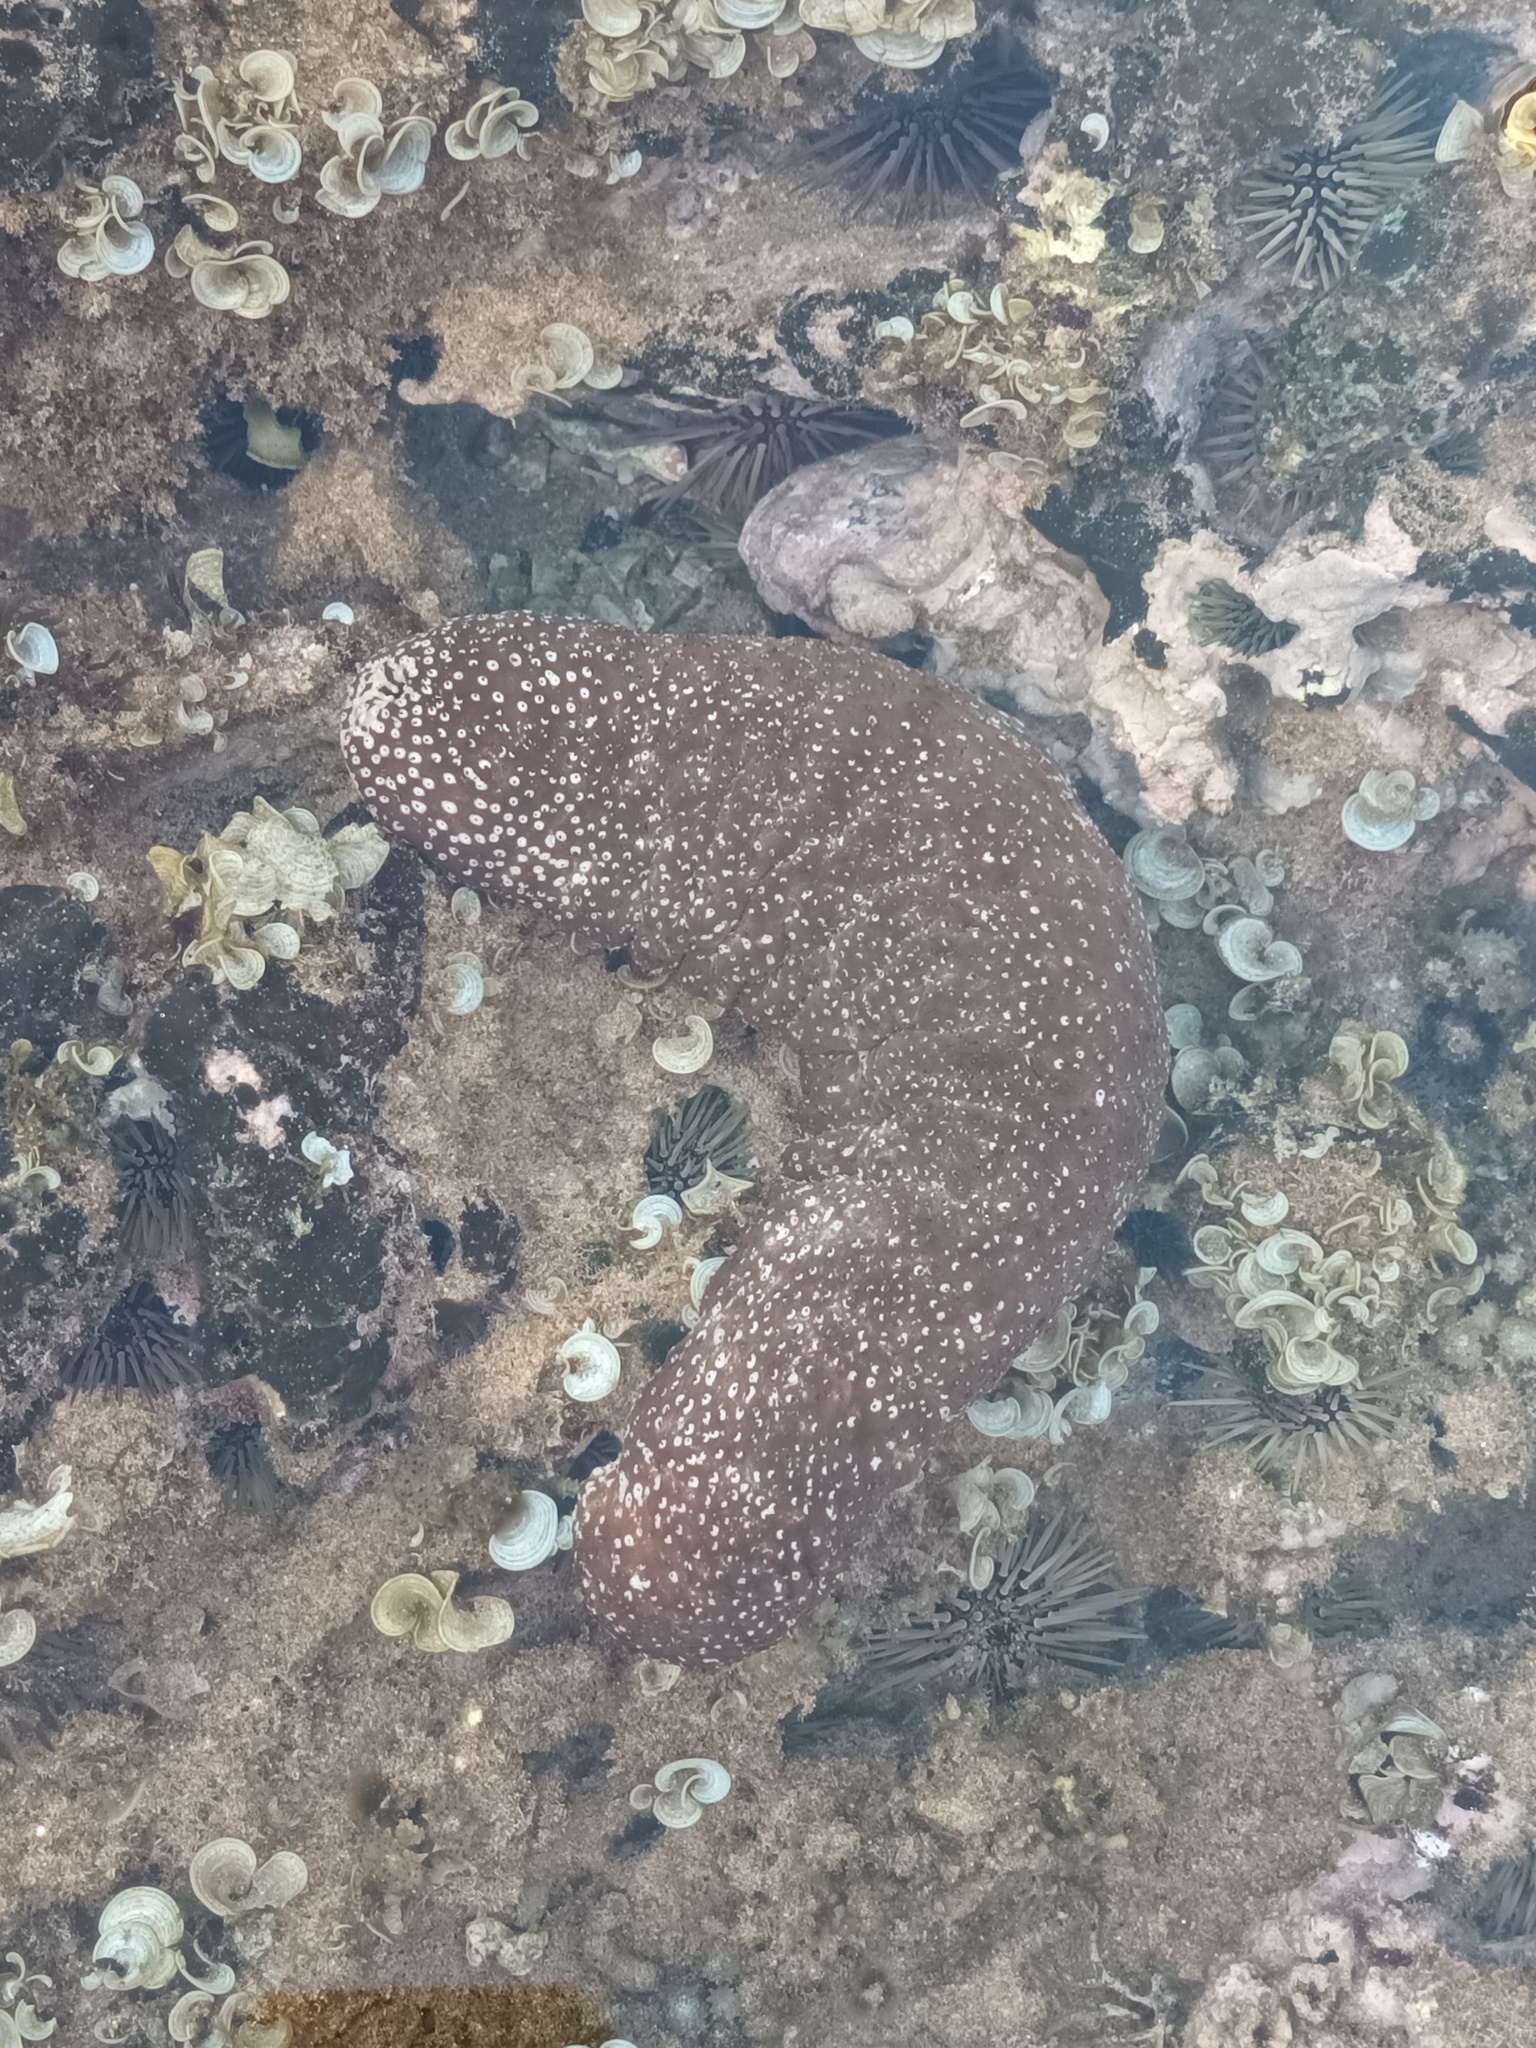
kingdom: Animalia
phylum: Echinodermata
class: Holothuroidea
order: Holothuriida
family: Holothuriidae
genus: Actinopyga
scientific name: Actinopyga varians
